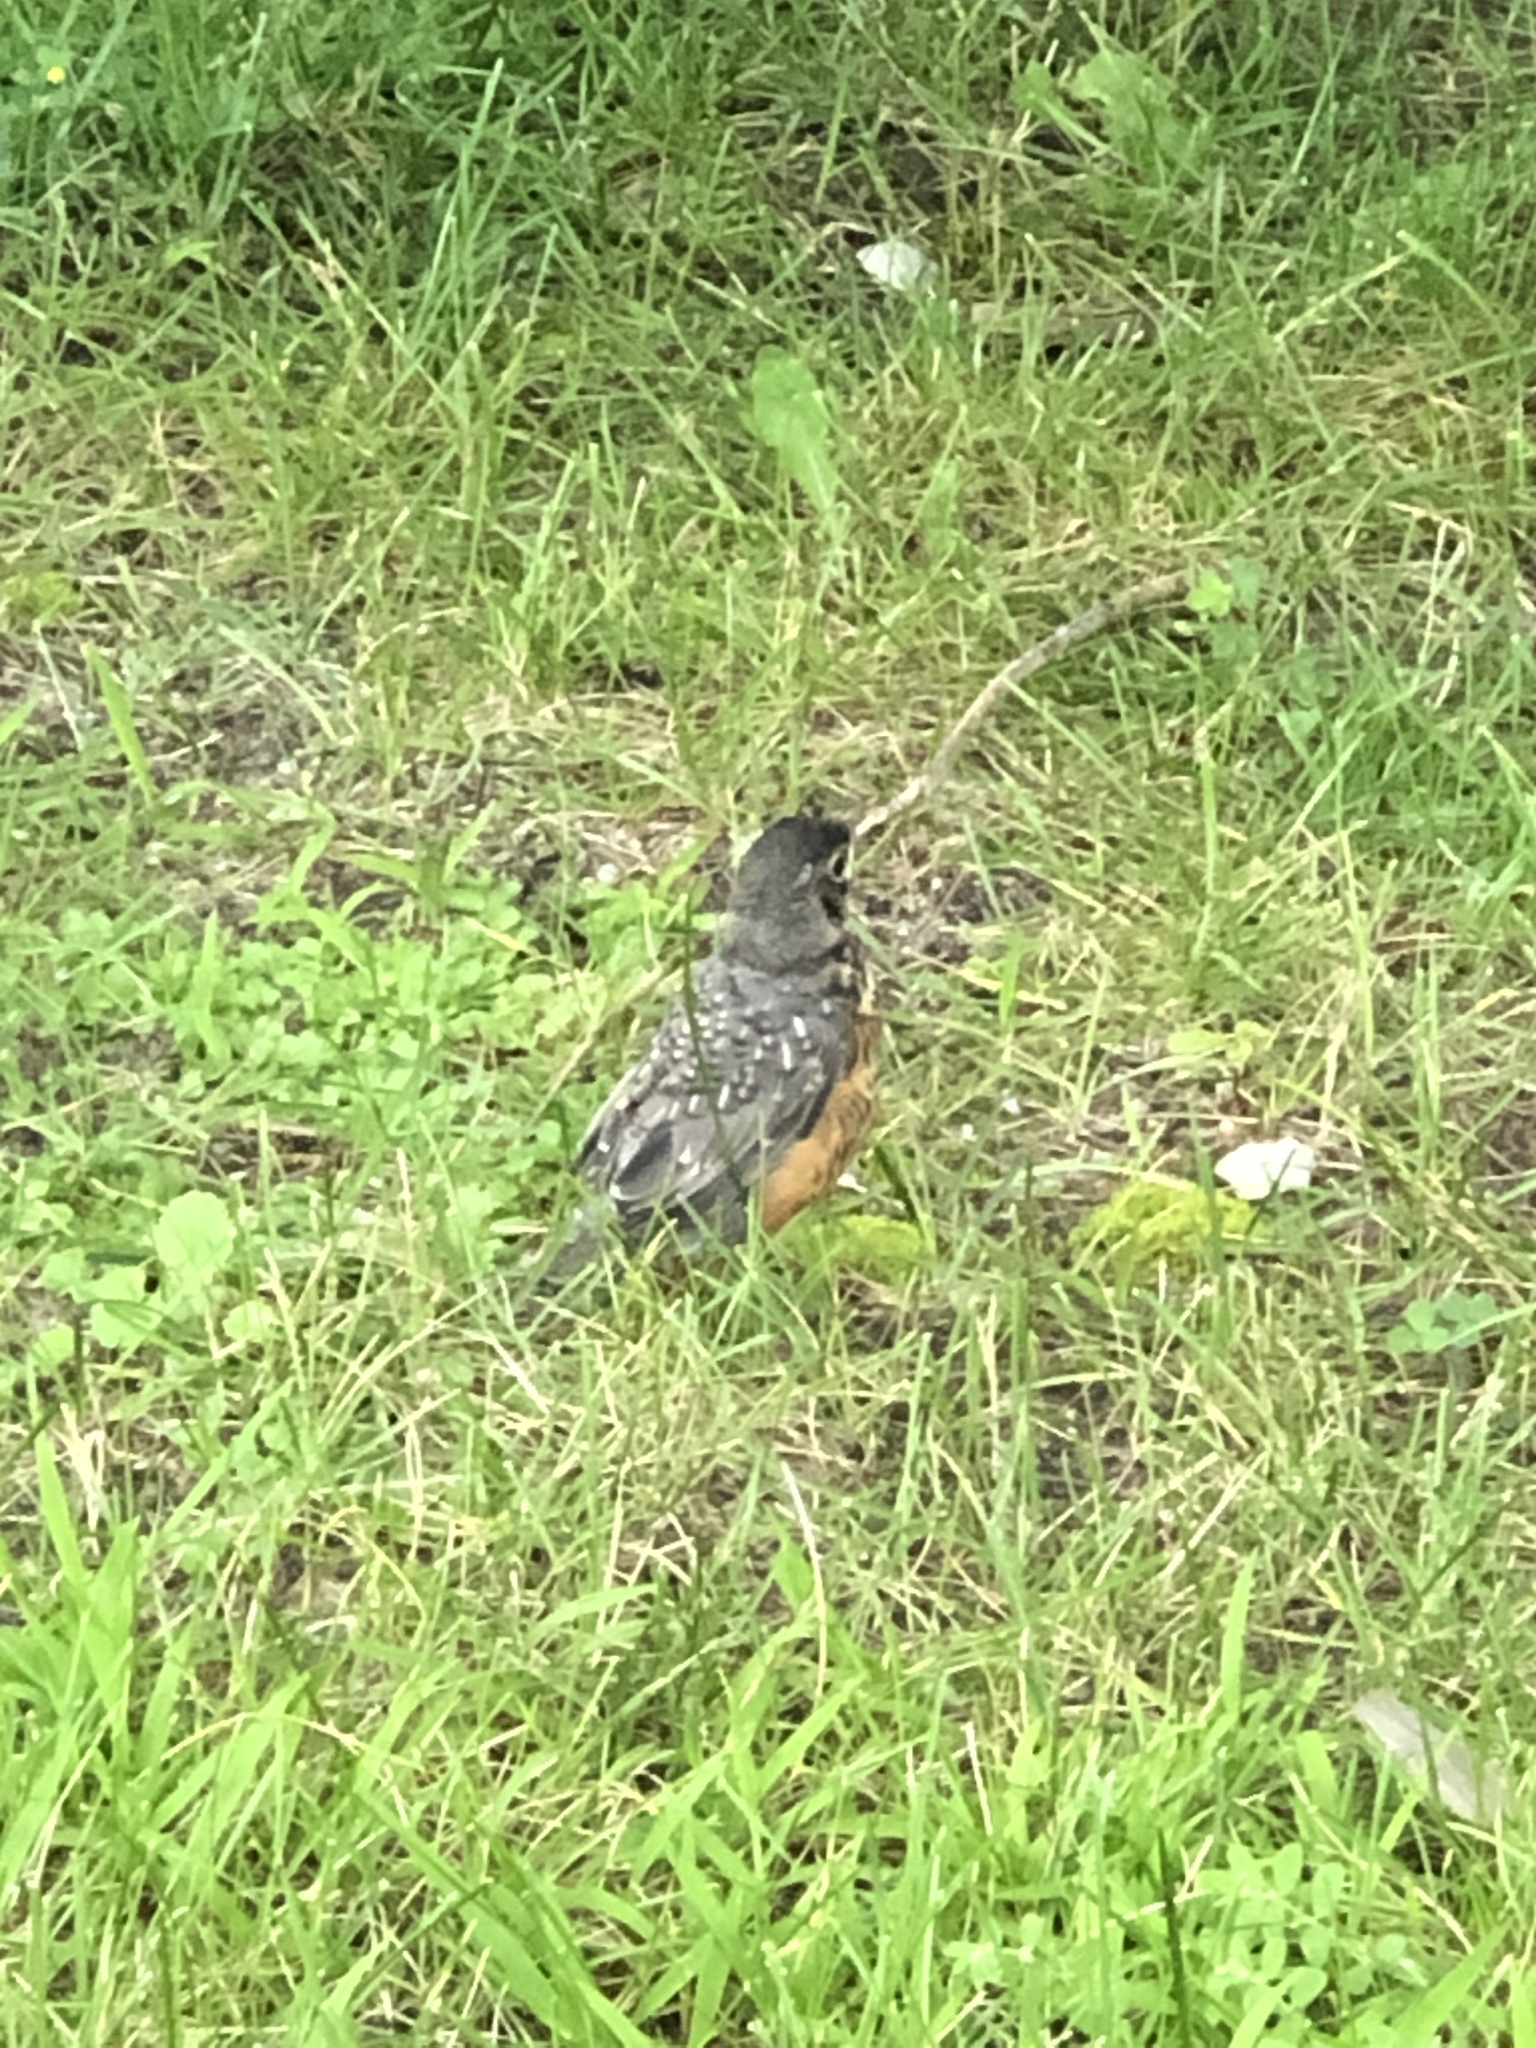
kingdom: Animalia
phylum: Chordata
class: Aves
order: Passeriformes
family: Turdidae
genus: Turdus
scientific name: Turdus migratorius
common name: American robin
